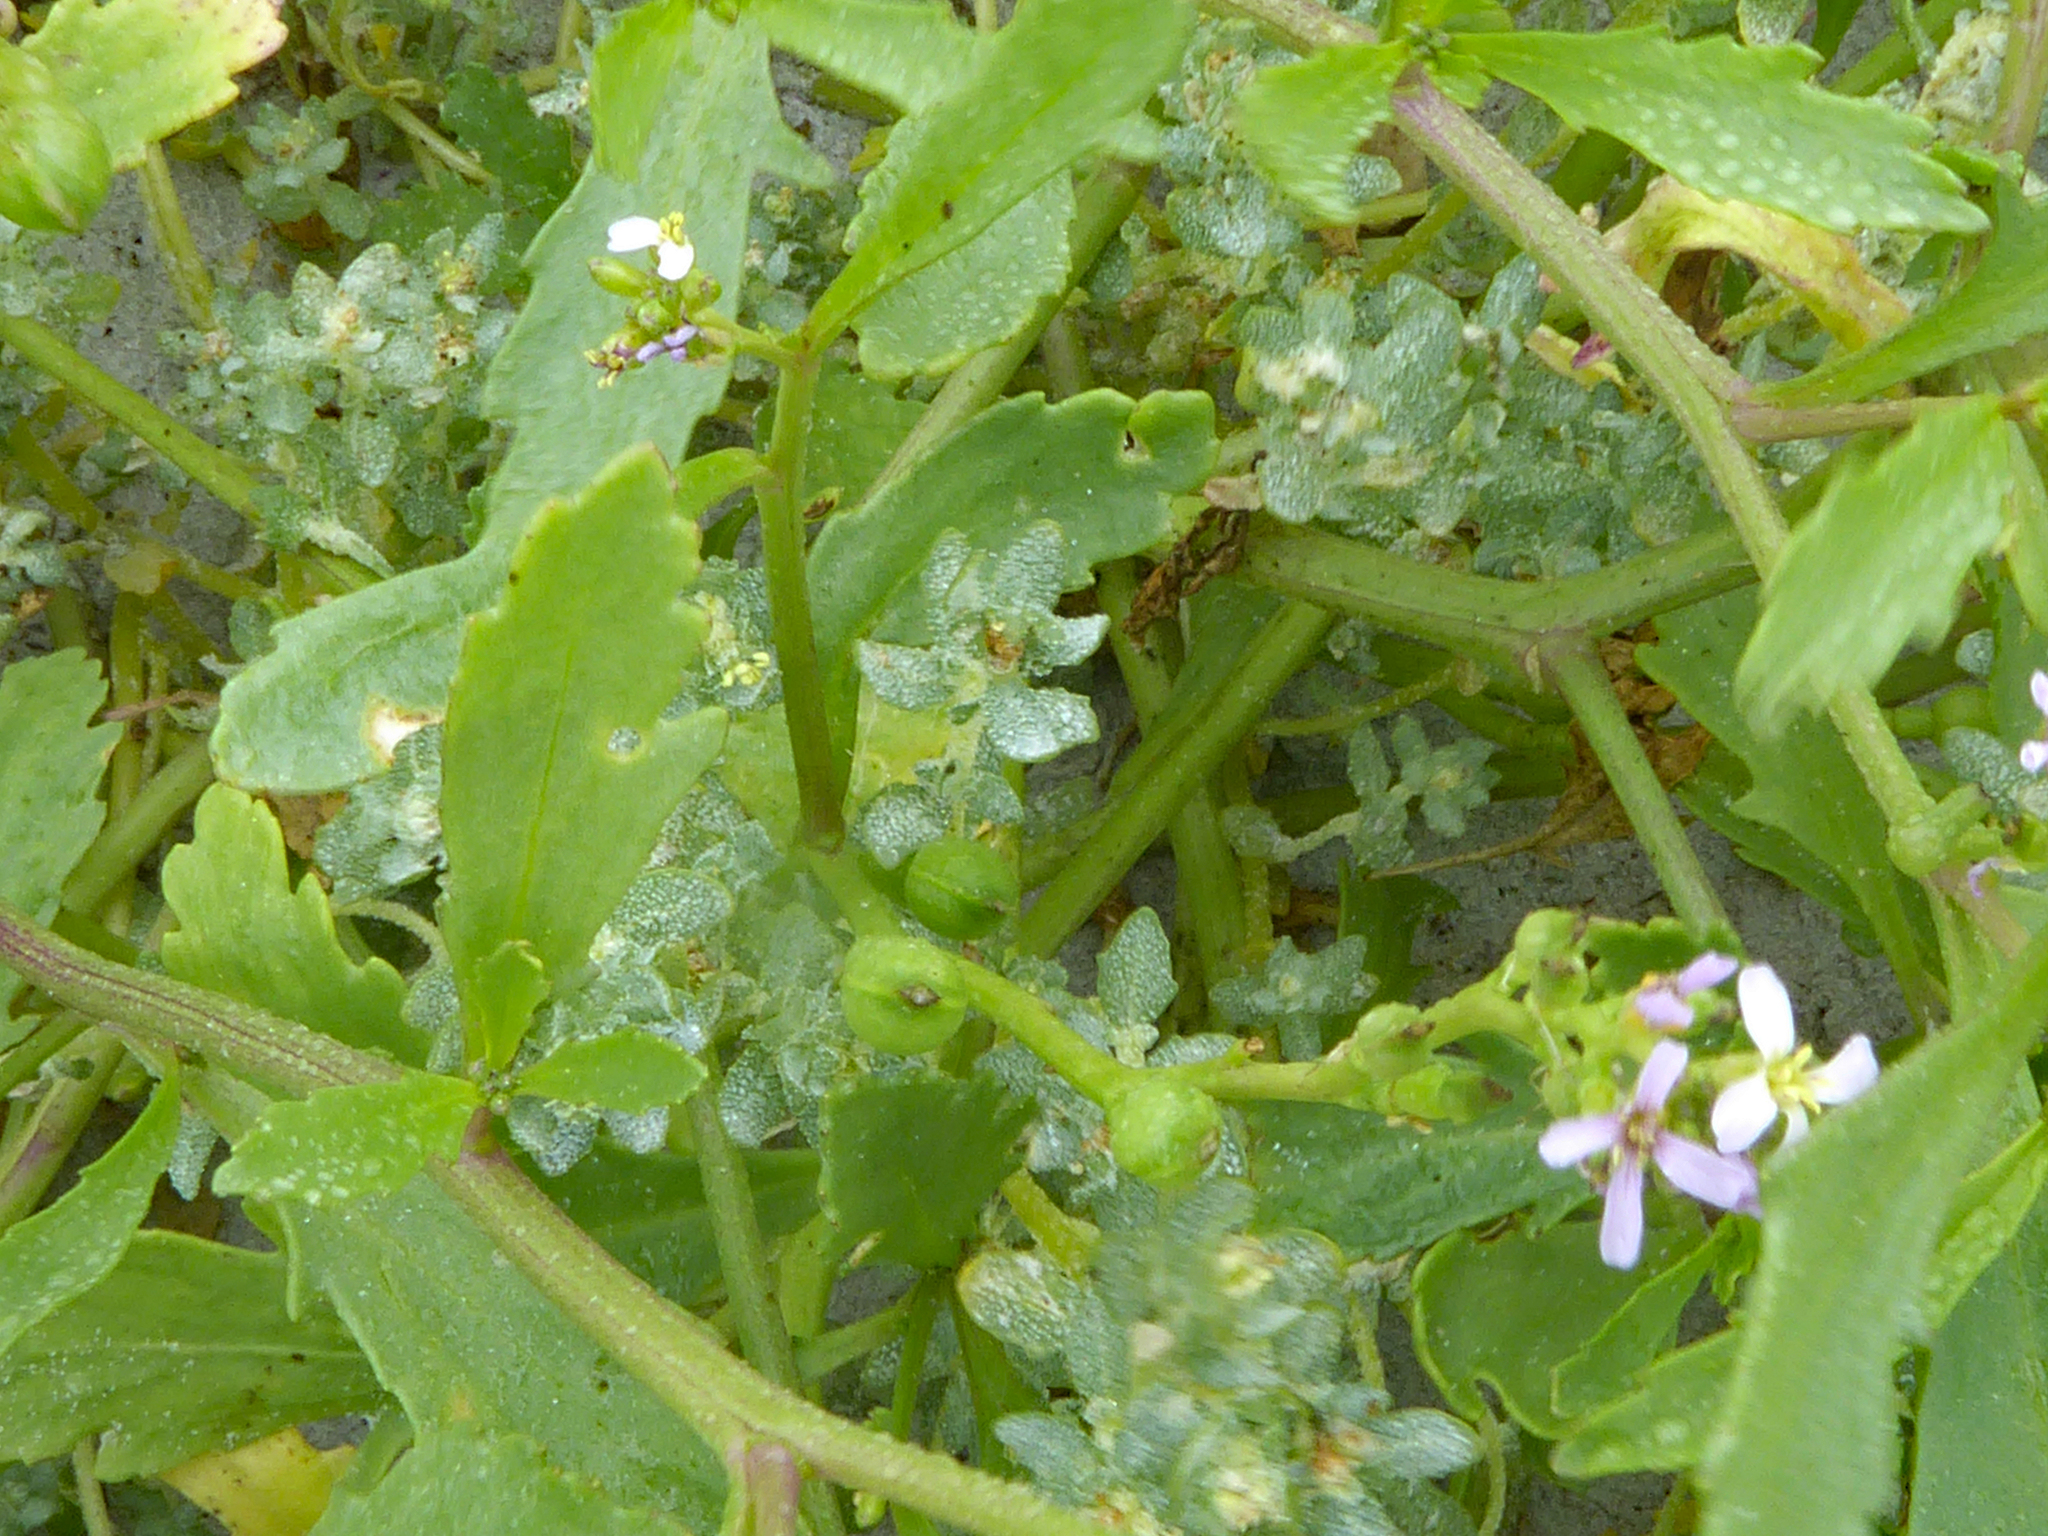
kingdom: Plantae
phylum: Tracheophyta
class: Magnoliopsida
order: Caryophyllales
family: Amaranthaceae
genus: Atriplex
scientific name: Atriplex billardierei
